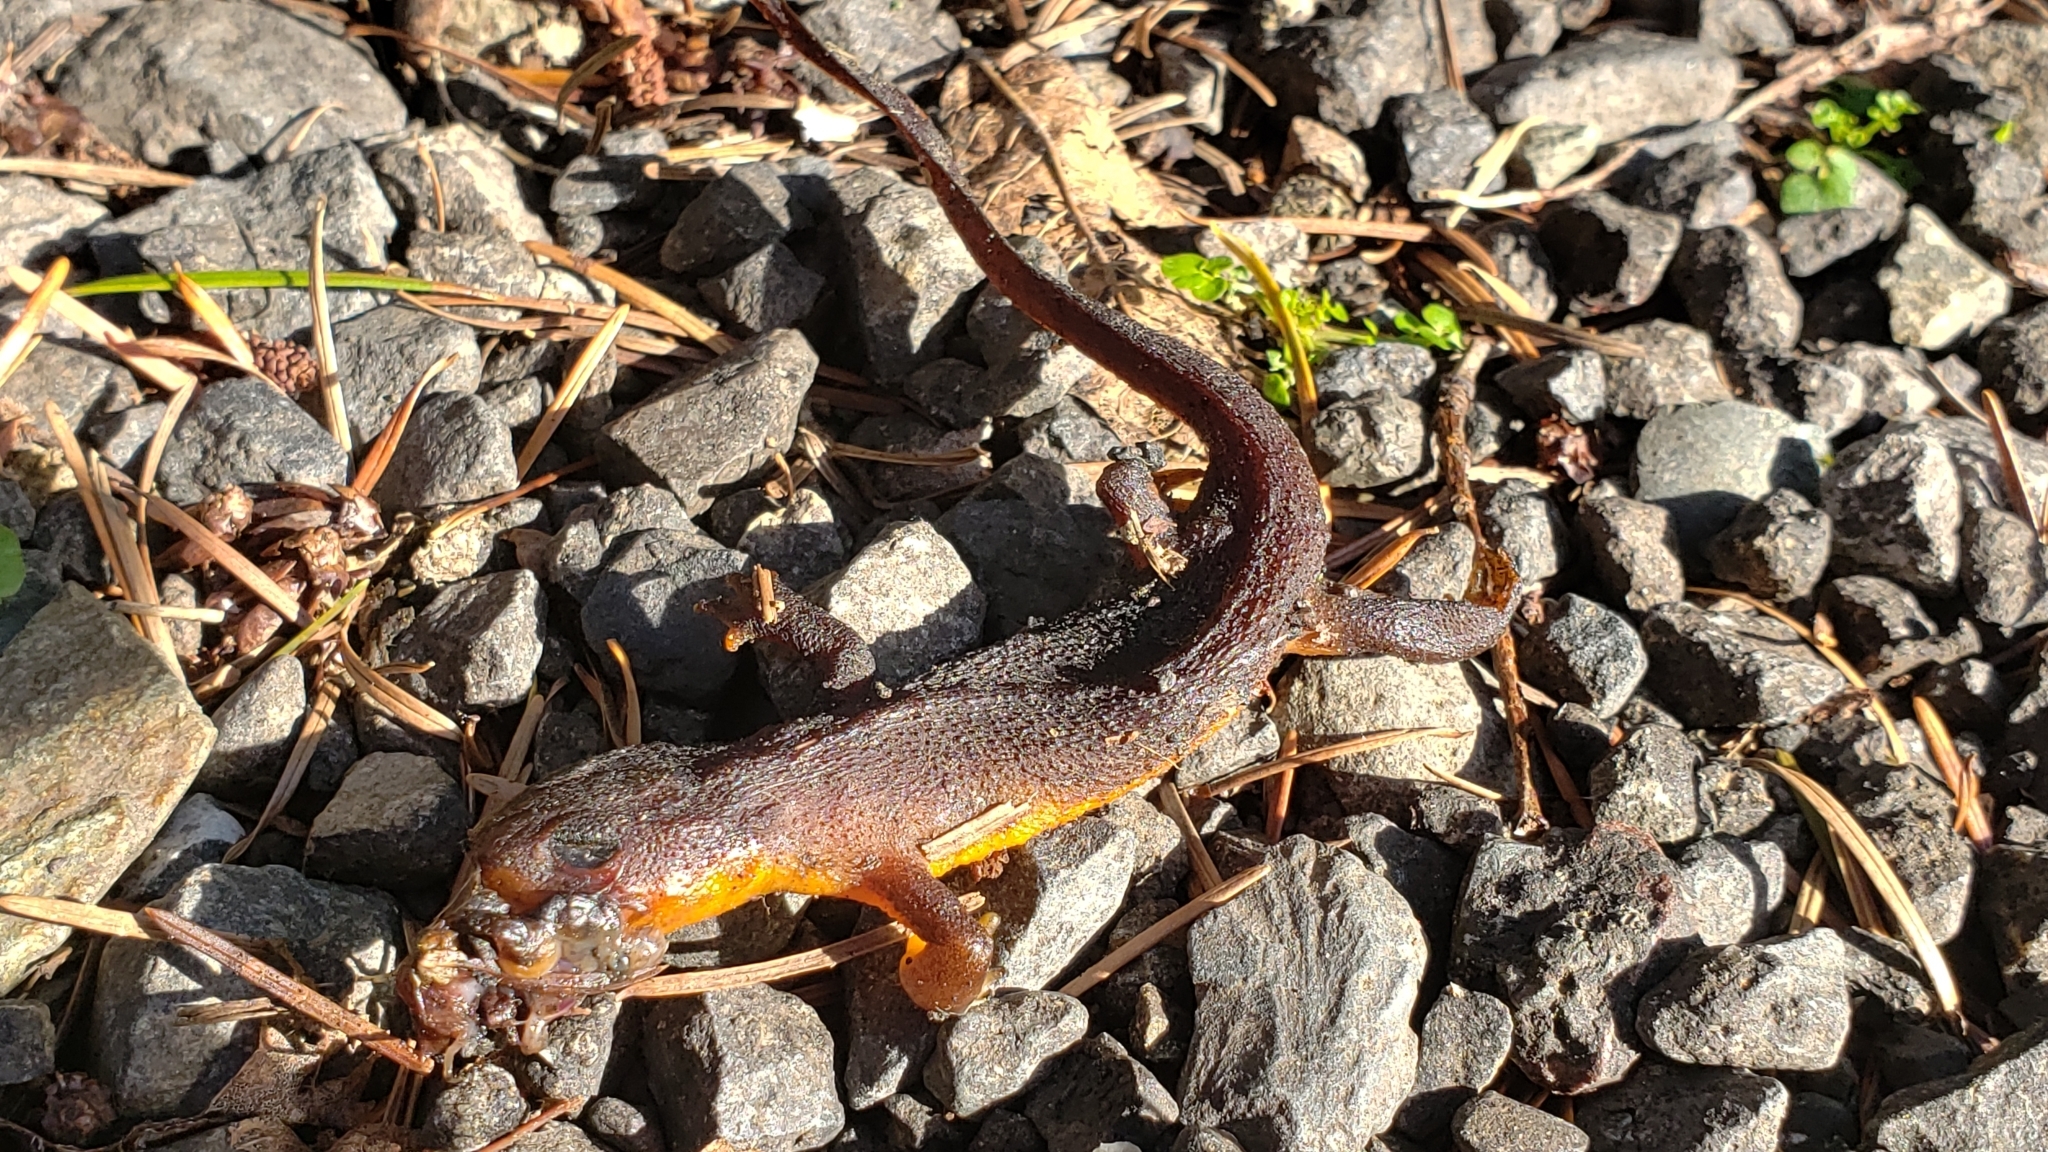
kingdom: Animalia
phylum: Chordata
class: Amphibia
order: Caudata
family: Salamandridae
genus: Taricha
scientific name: Taricha granulosa
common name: Roughskin newt
